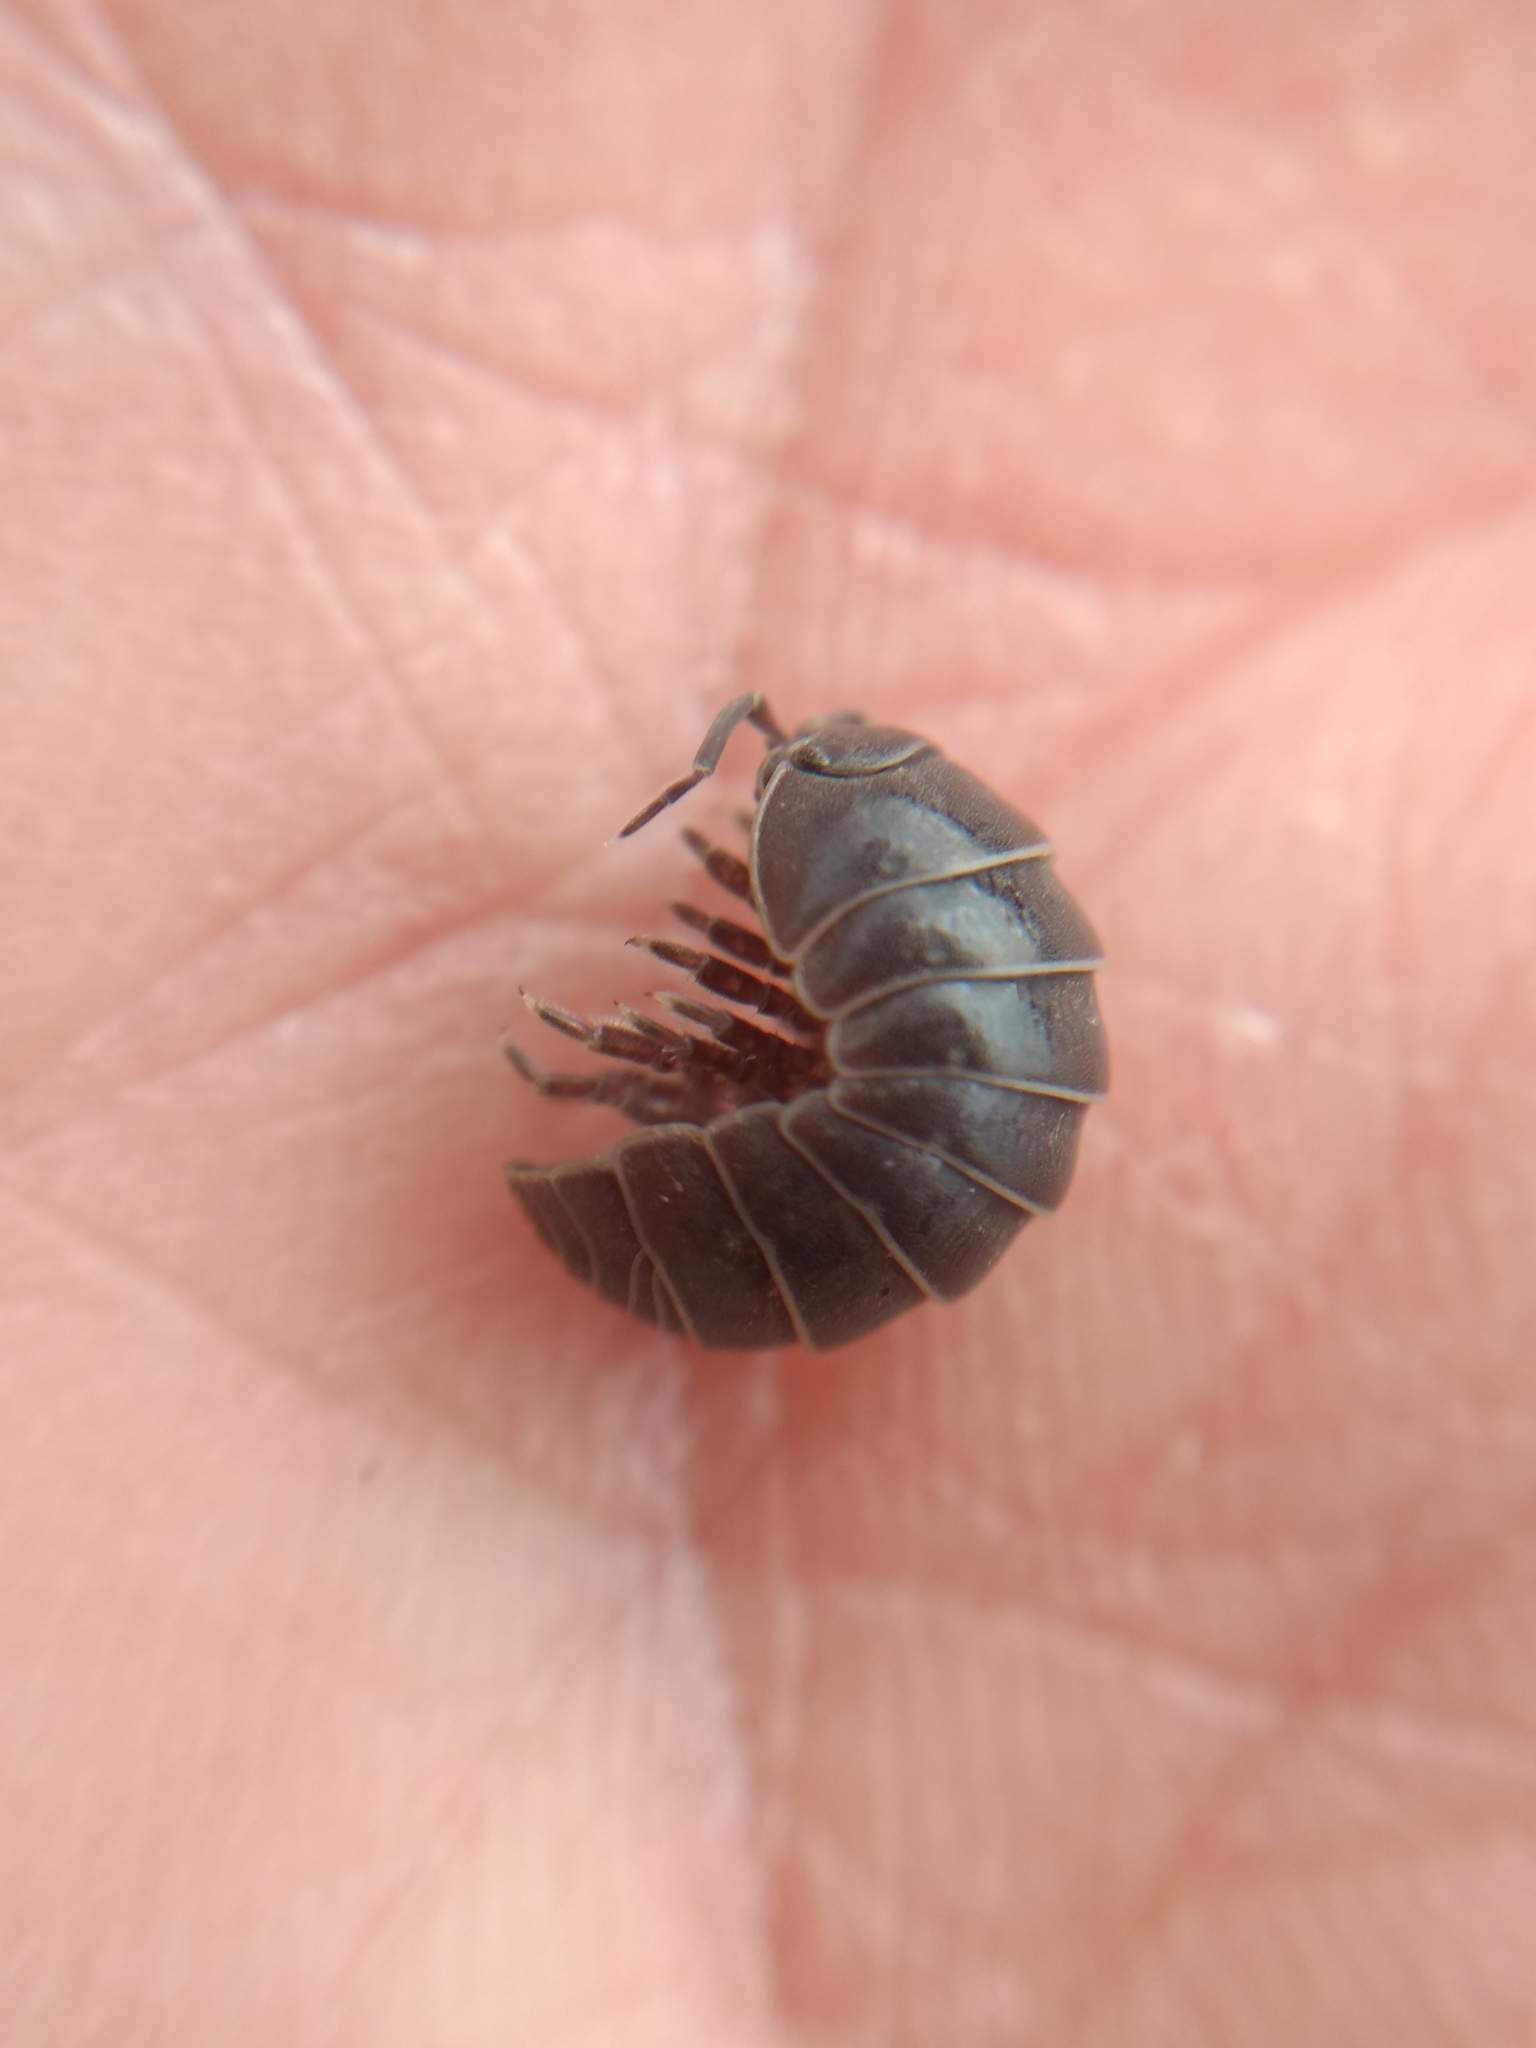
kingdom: Animalia
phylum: Arthropoda
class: Malacostraca
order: Isopoda
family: Armadillidiidae
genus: Armadillidium
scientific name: Armadillidium vulgare
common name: Common pill woodlouse
